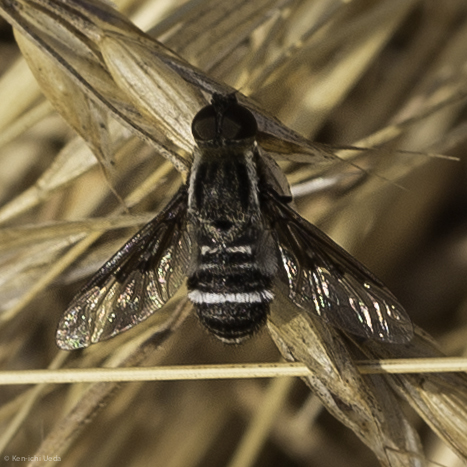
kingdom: Animalia
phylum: Arthropoda
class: Insecta
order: Diptera
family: Bombyliidae
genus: Hemipenthes
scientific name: Hemipenthes lepidotus
